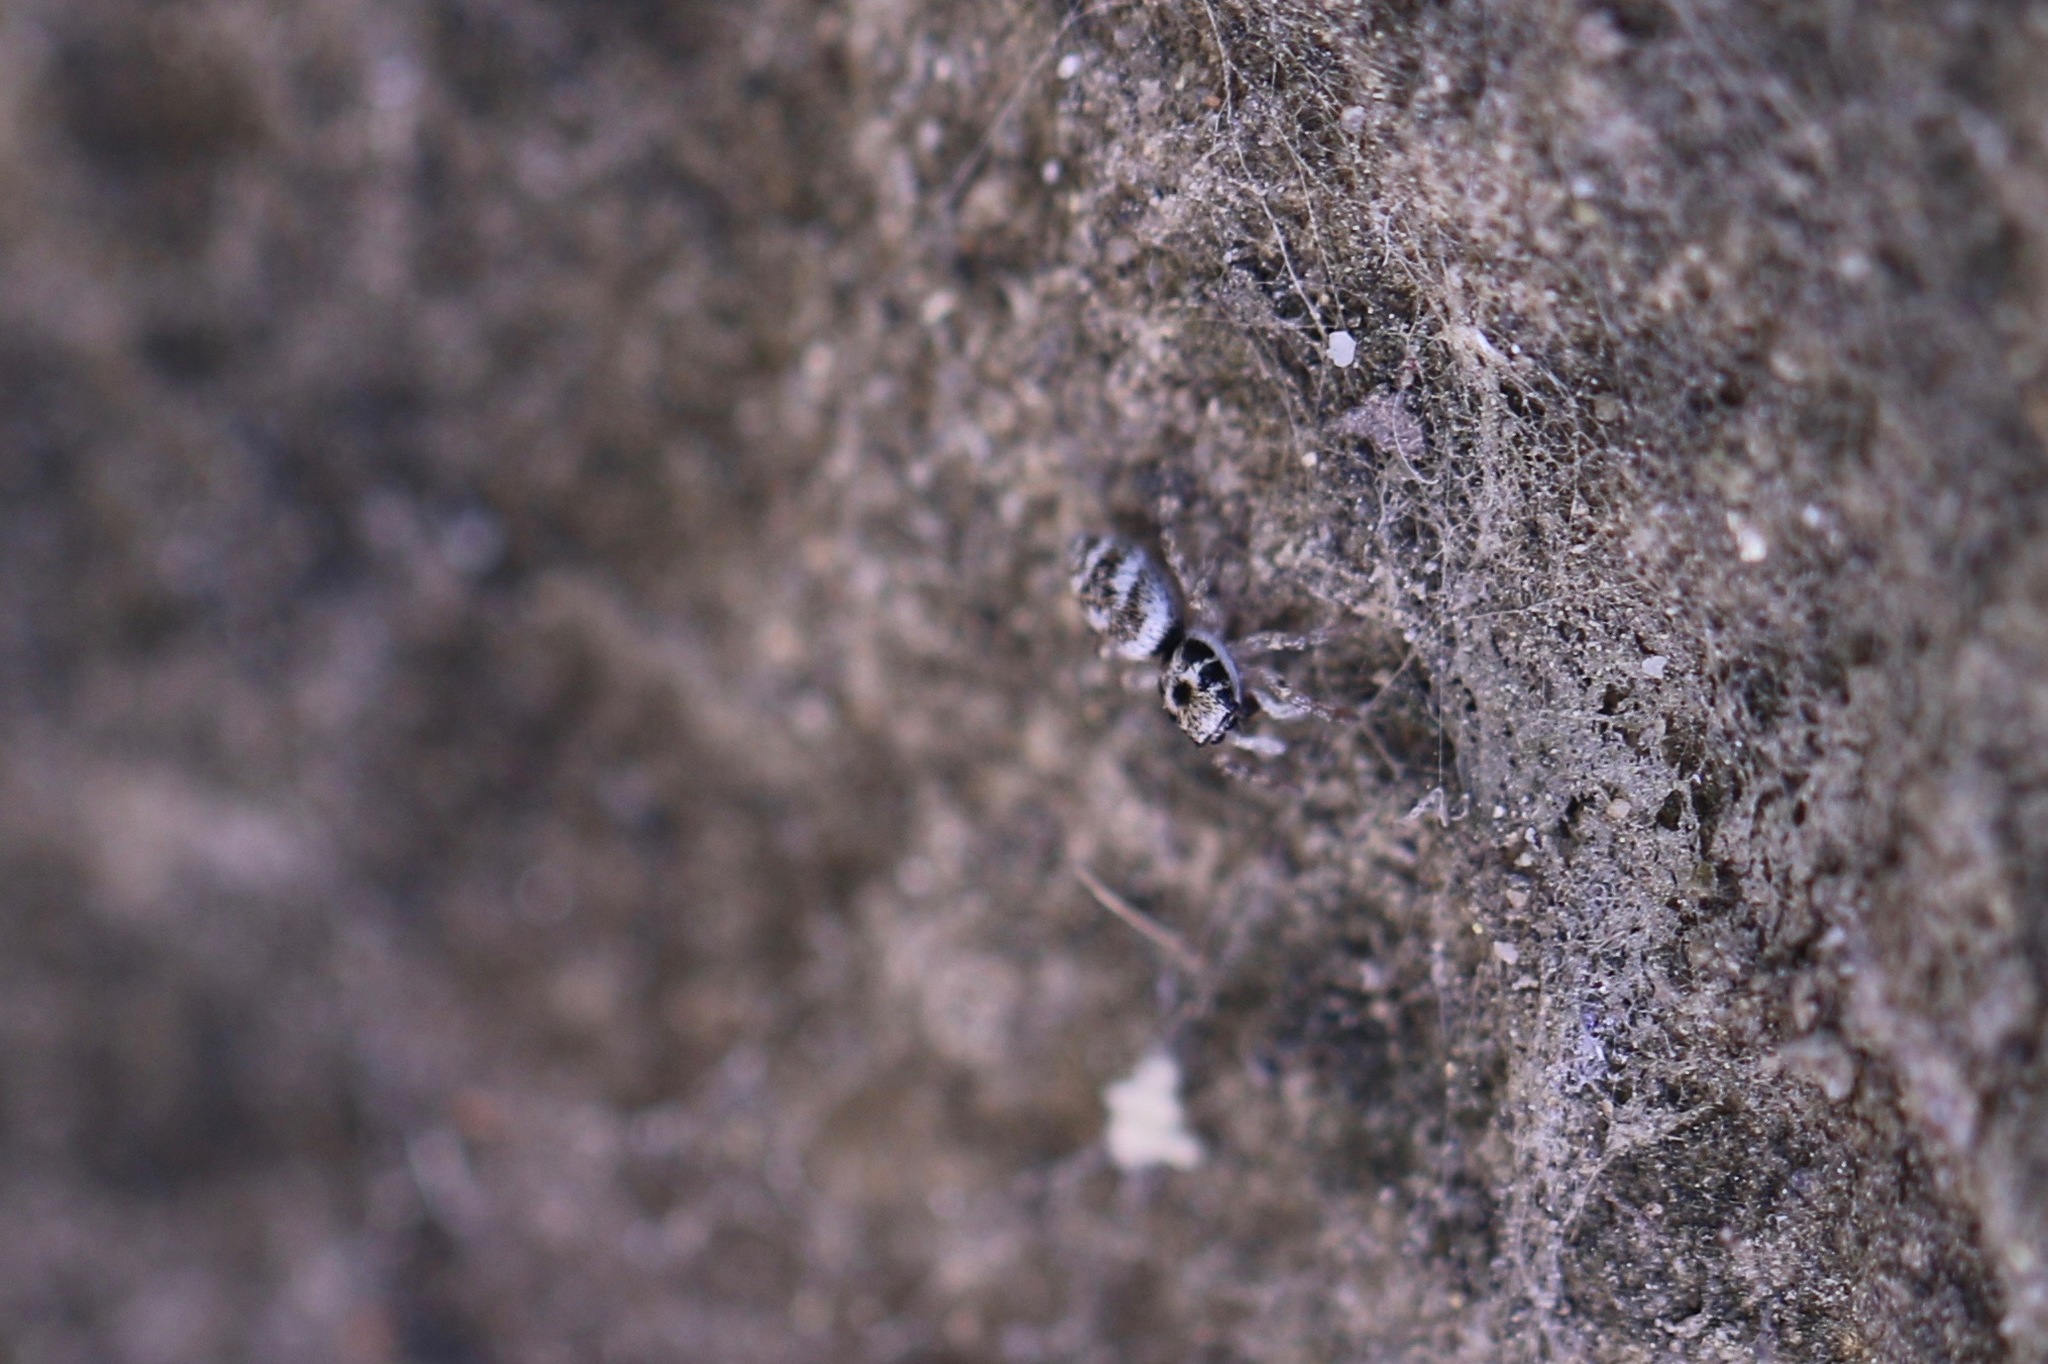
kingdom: Animalia
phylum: Arthropoda
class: Arachnida
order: Araneae
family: Salticidae
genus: Salticus
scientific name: Salticus scenicus
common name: Zebra jumper
